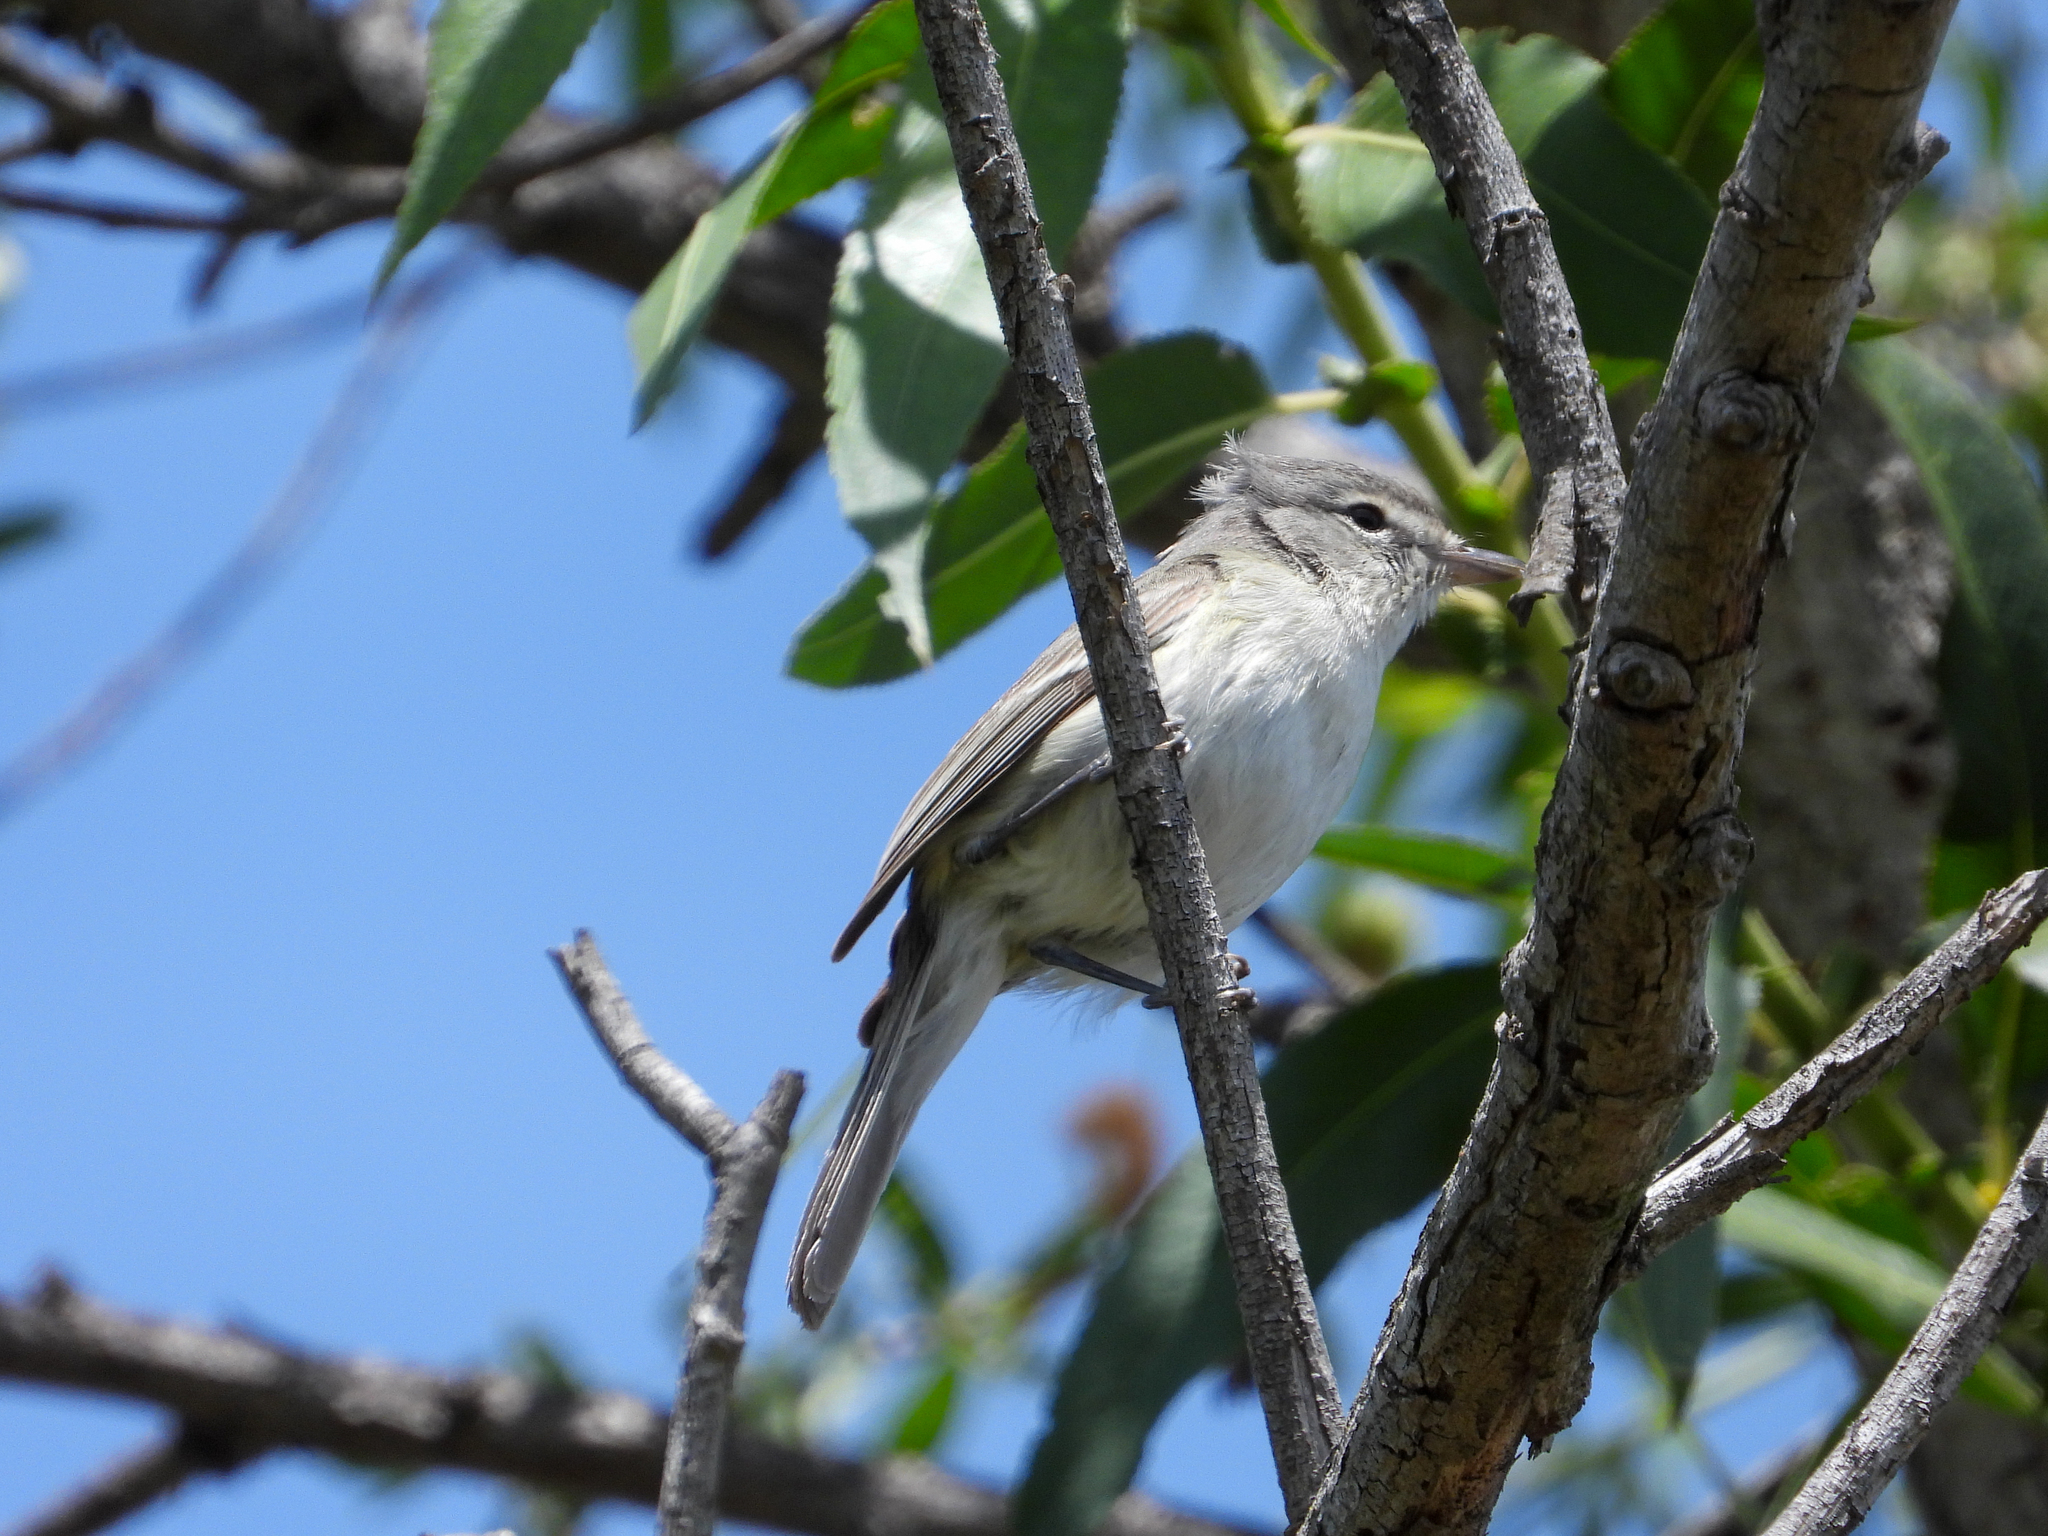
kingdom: Animalia
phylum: Chordata
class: Aves
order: Passeriformes
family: Vireonidae
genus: Vireo
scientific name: Vireo bellii
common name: Bell's vireo
